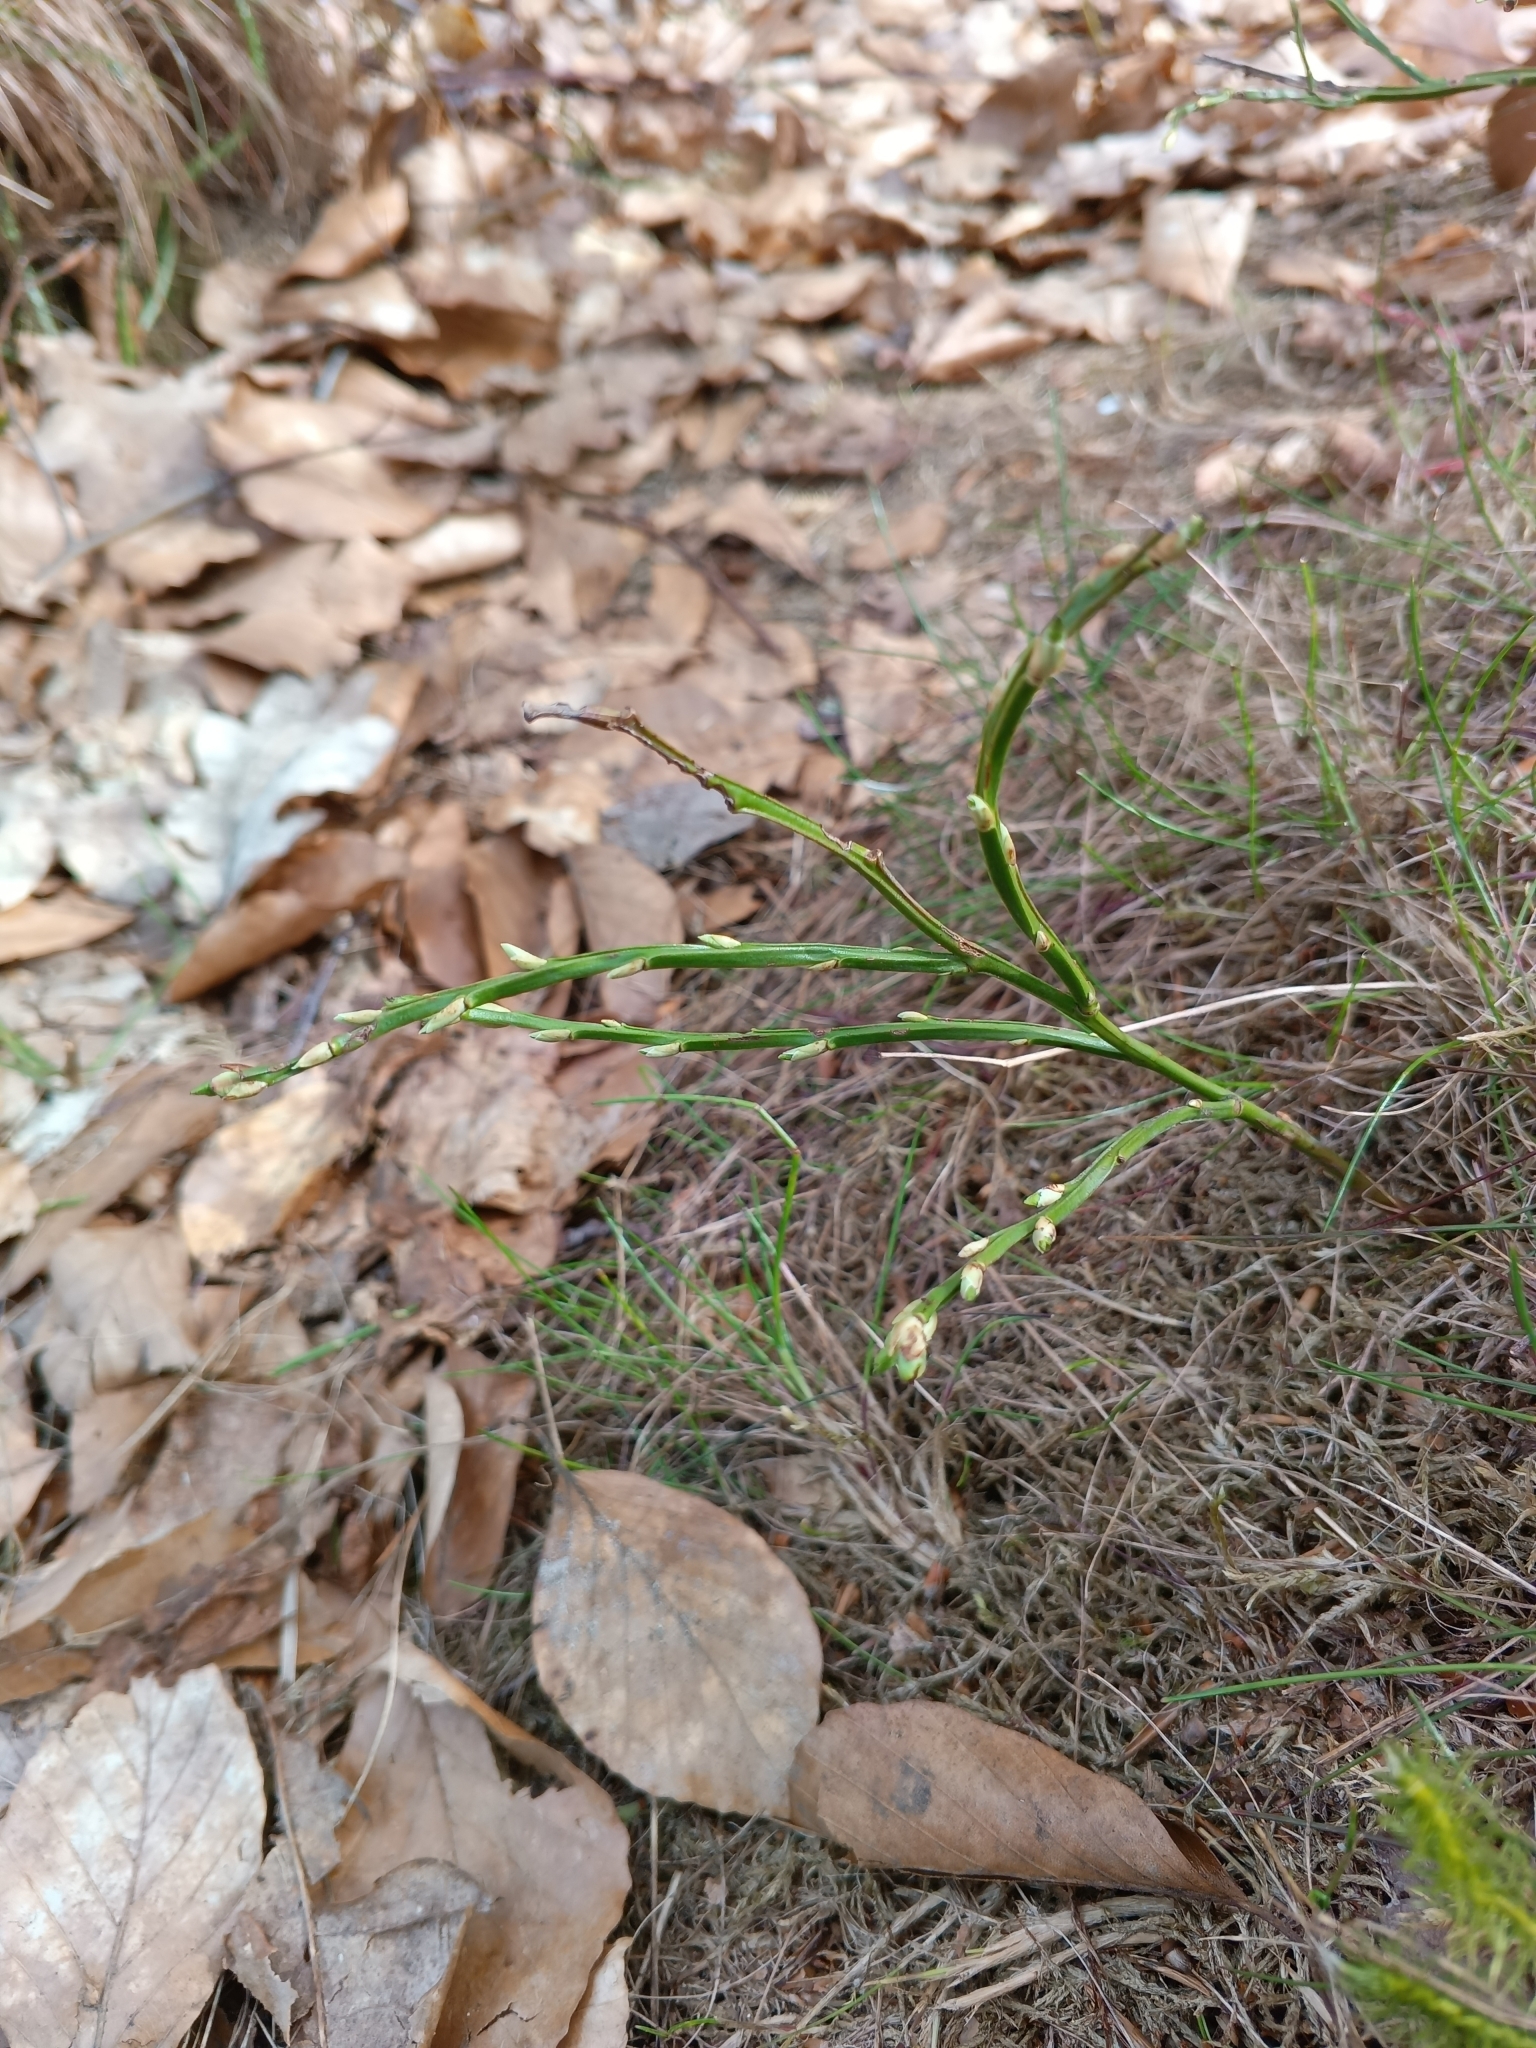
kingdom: Plantae
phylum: Tracheophyta
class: Magnoliopsida
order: Ericales
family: Ericaceae
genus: Vaccinium
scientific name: Vaccinium myrtillus
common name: Bilberry
